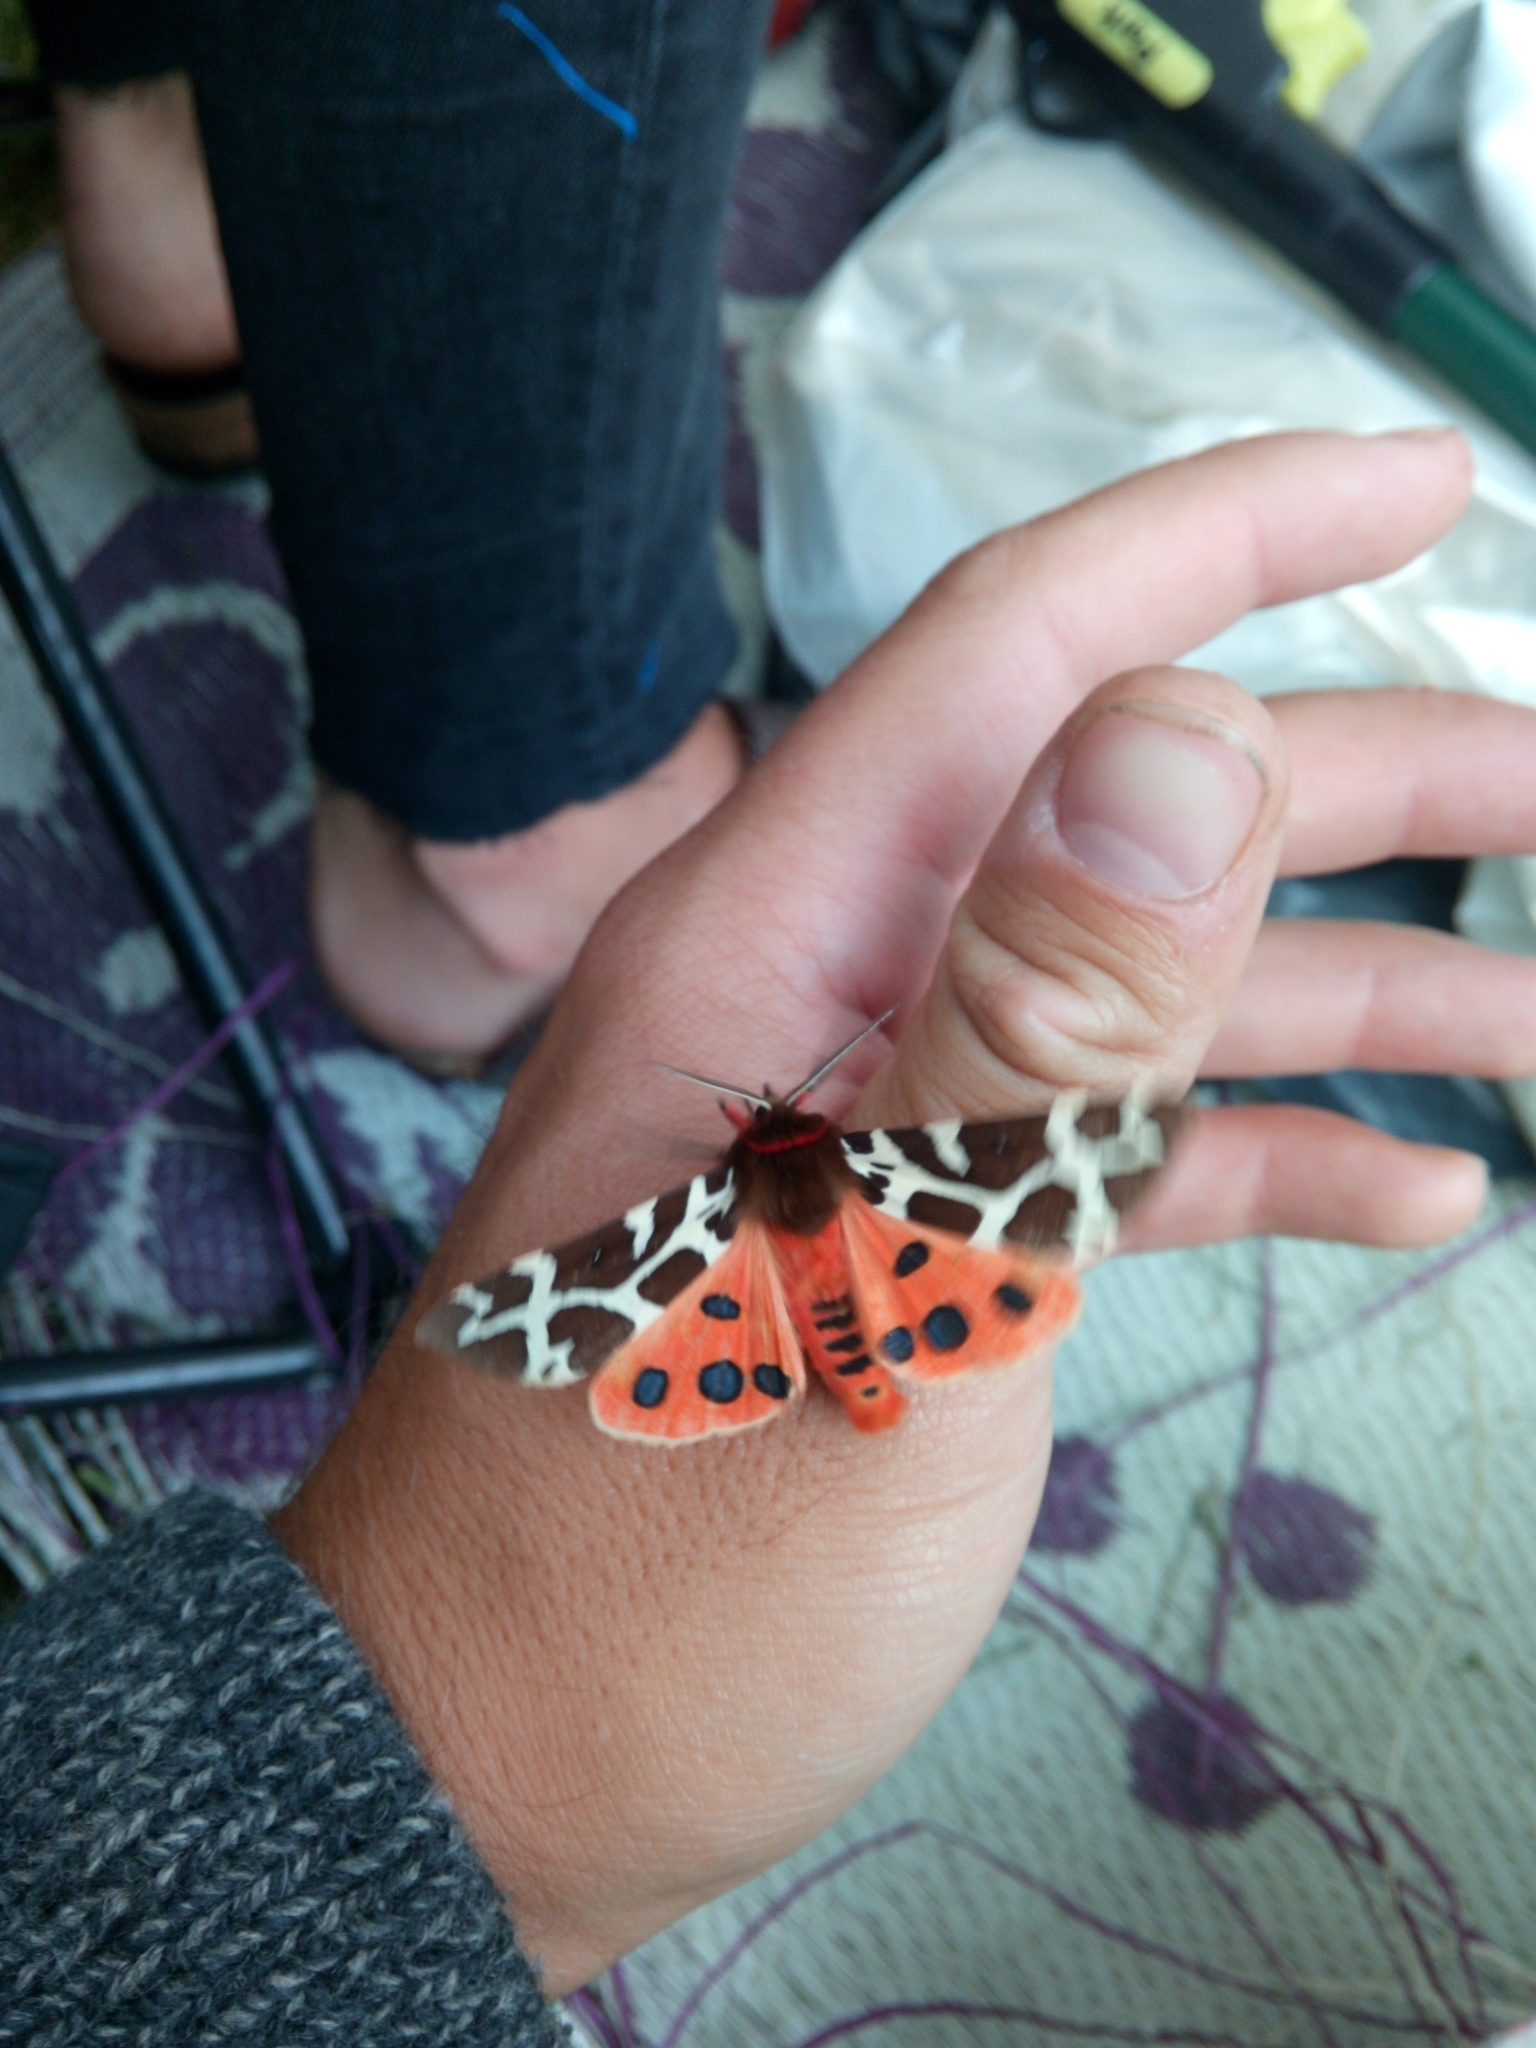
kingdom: Animalia
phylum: Arthropoda
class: Insecta
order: Lepidoptera
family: Erebidae
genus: Arctia
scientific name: Arctia caja
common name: Garden tiger
